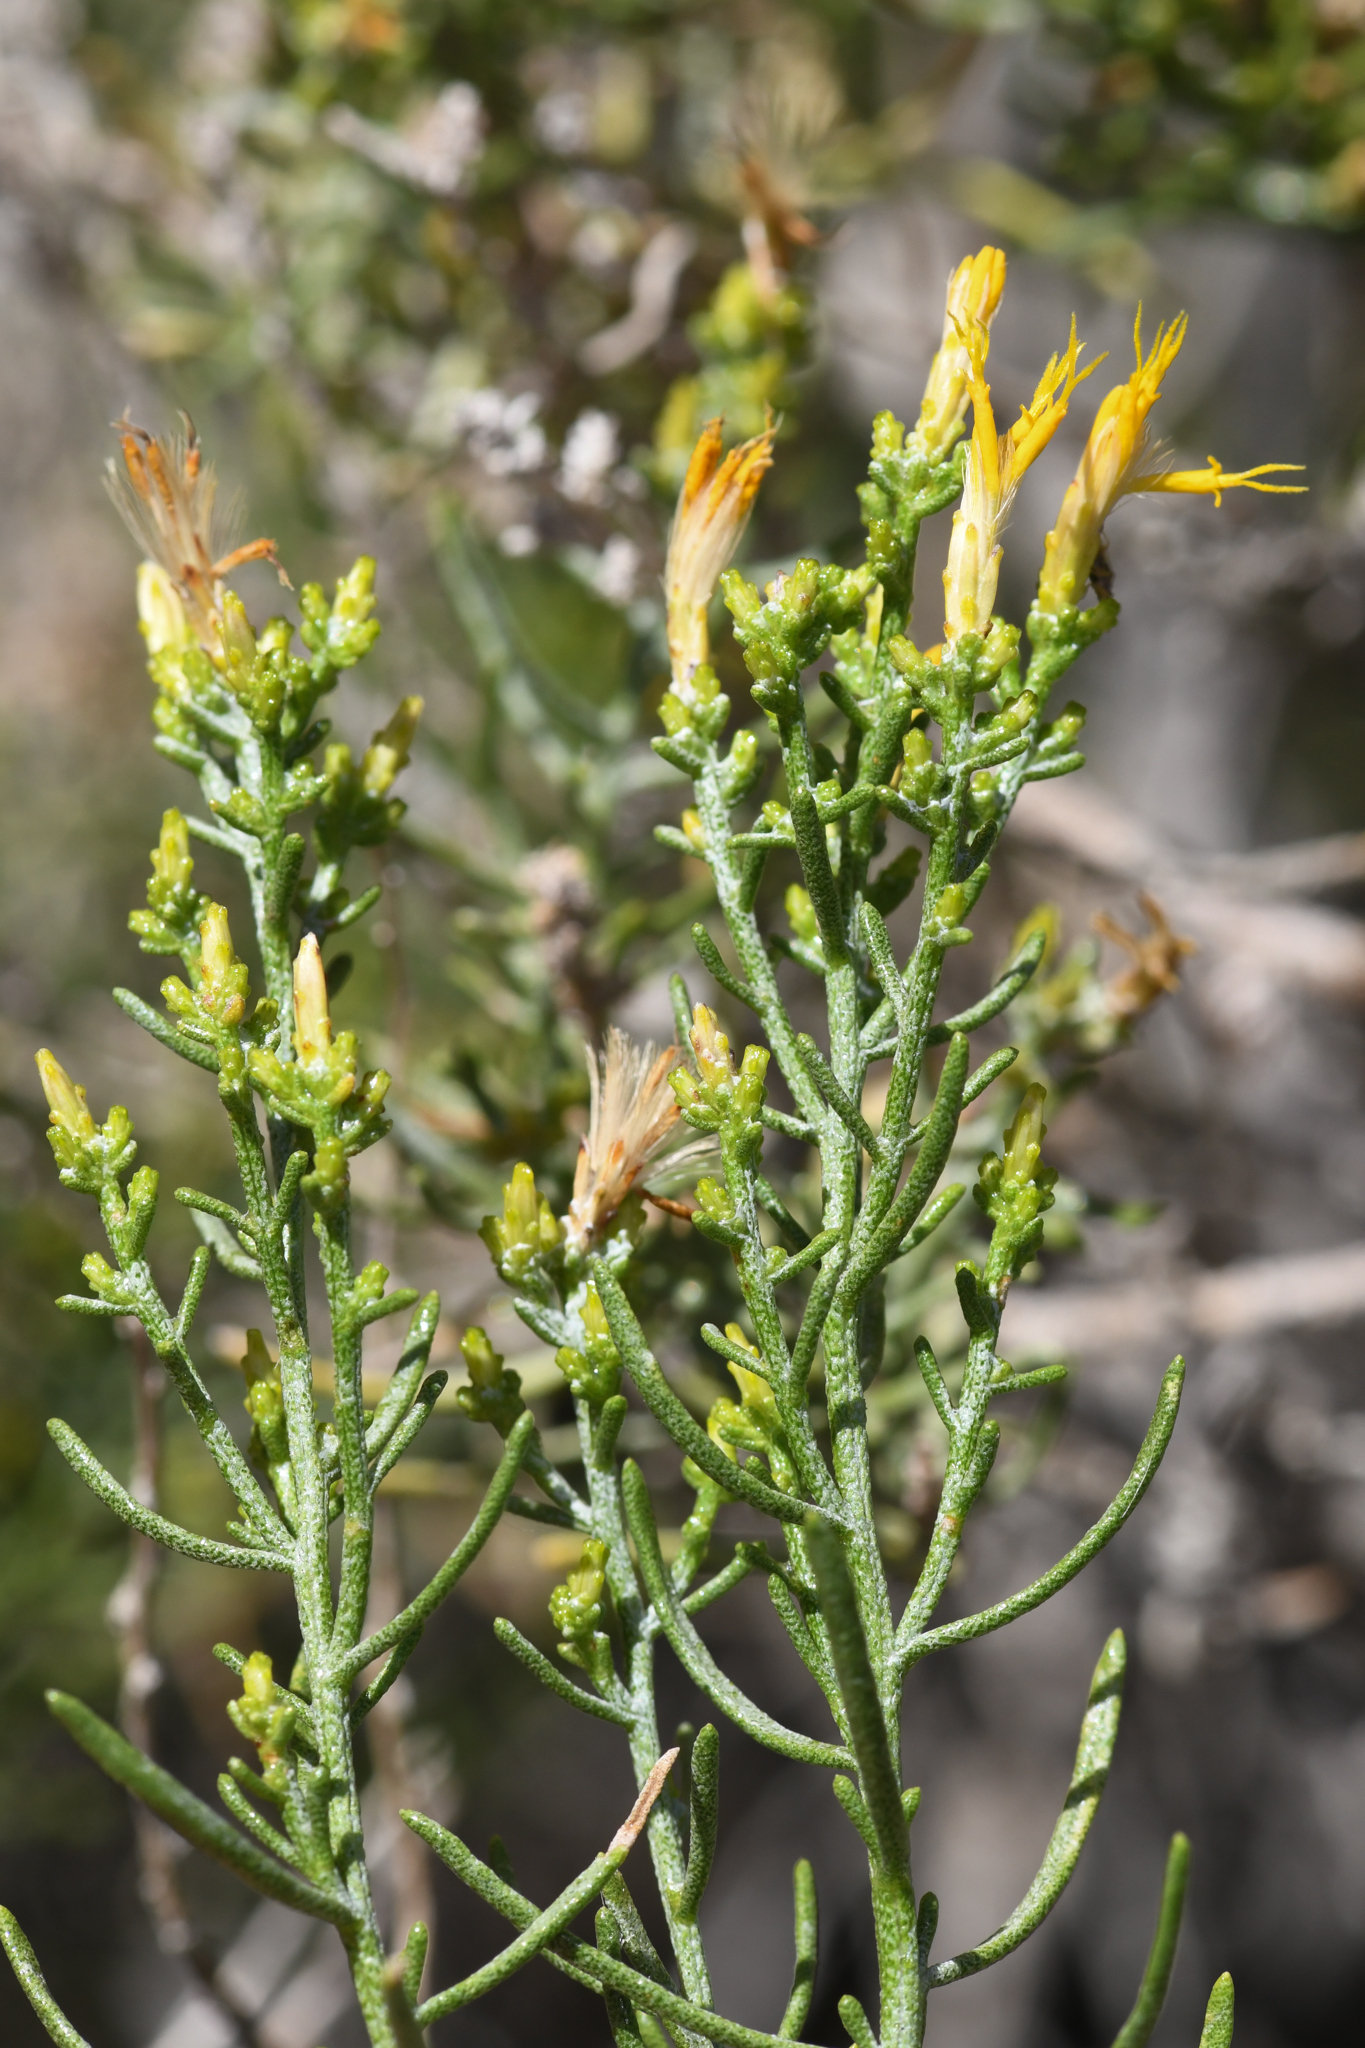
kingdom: Plantae
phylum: Tracheophyta
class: Magnoliopsida
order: Asterales
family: Asteraceae
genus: Ericameria
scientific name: Ericameria teretifolia
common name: Round-leaf rabbitbrush
